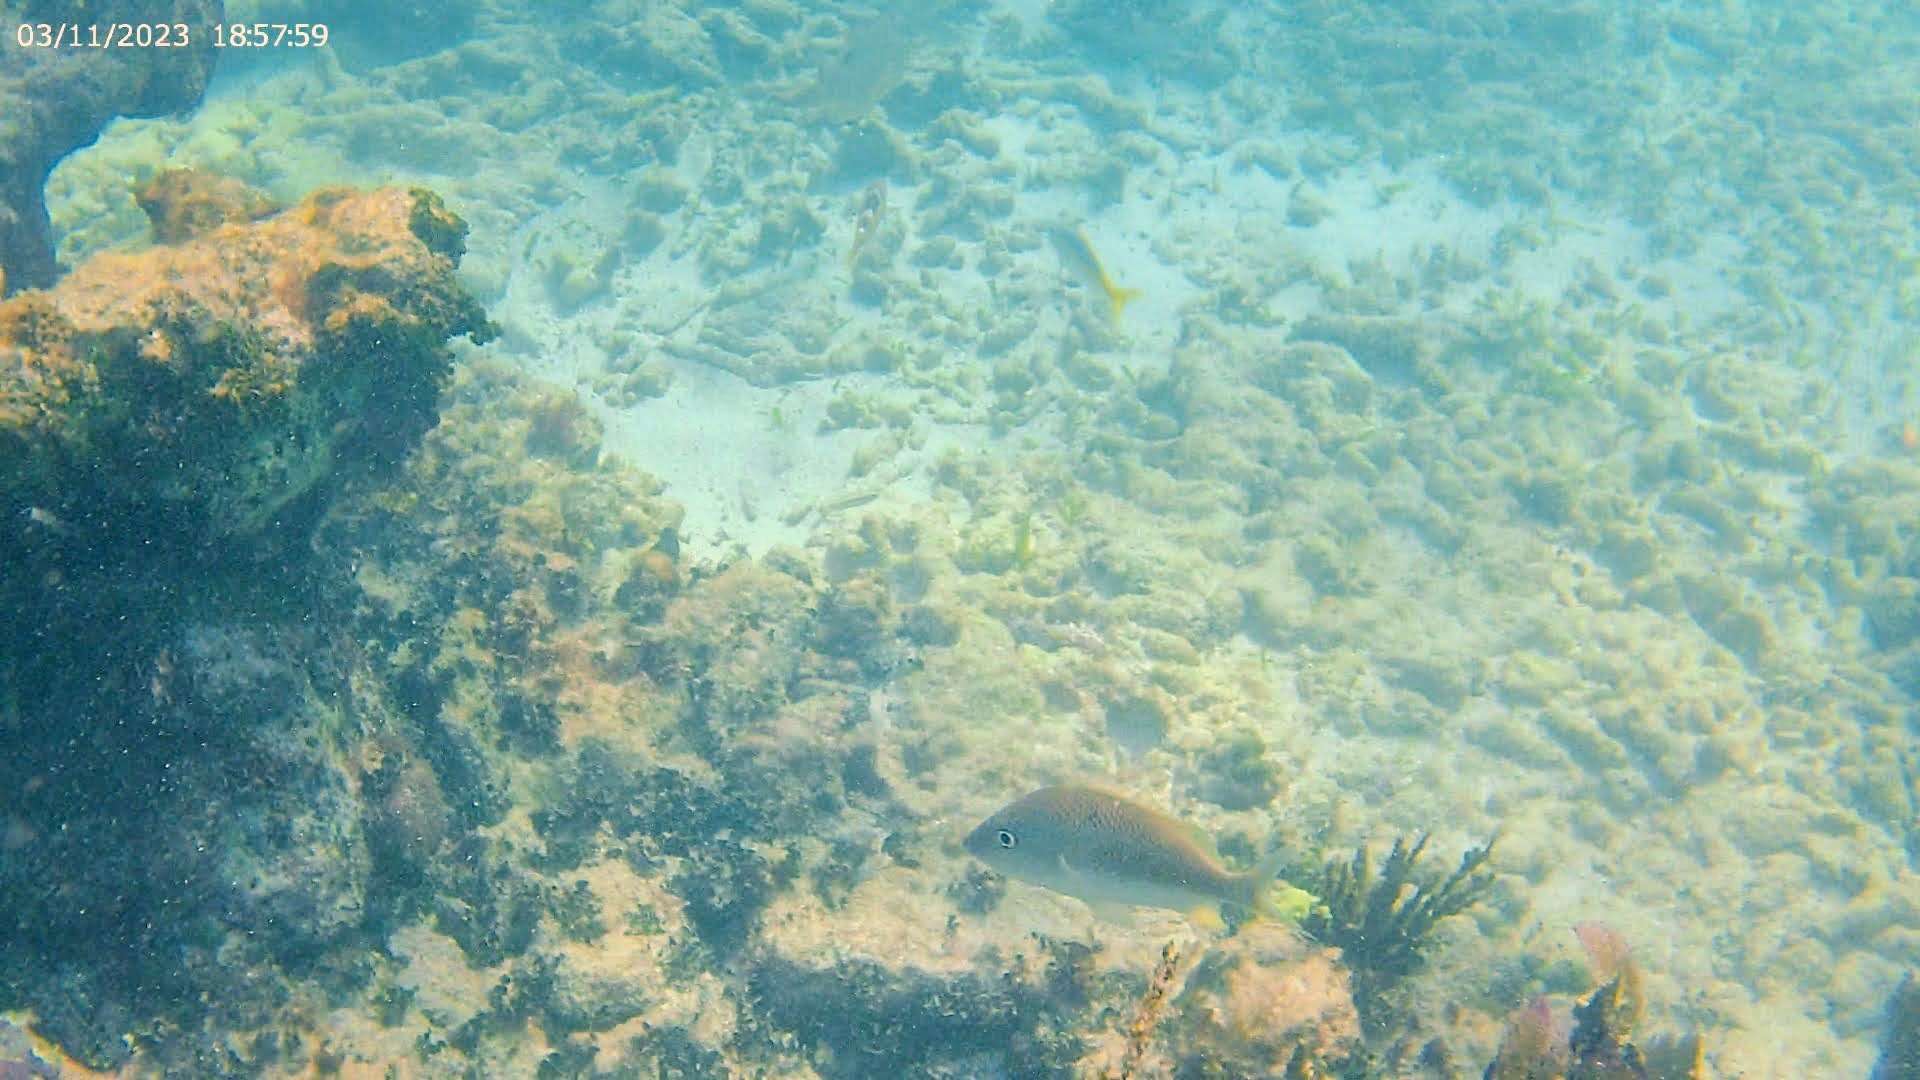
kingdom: Animalia
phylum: Chordata
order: Perciformes
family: Haemulidae
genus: Haemulon
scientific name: Haemulon plumierii
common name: White grunt
